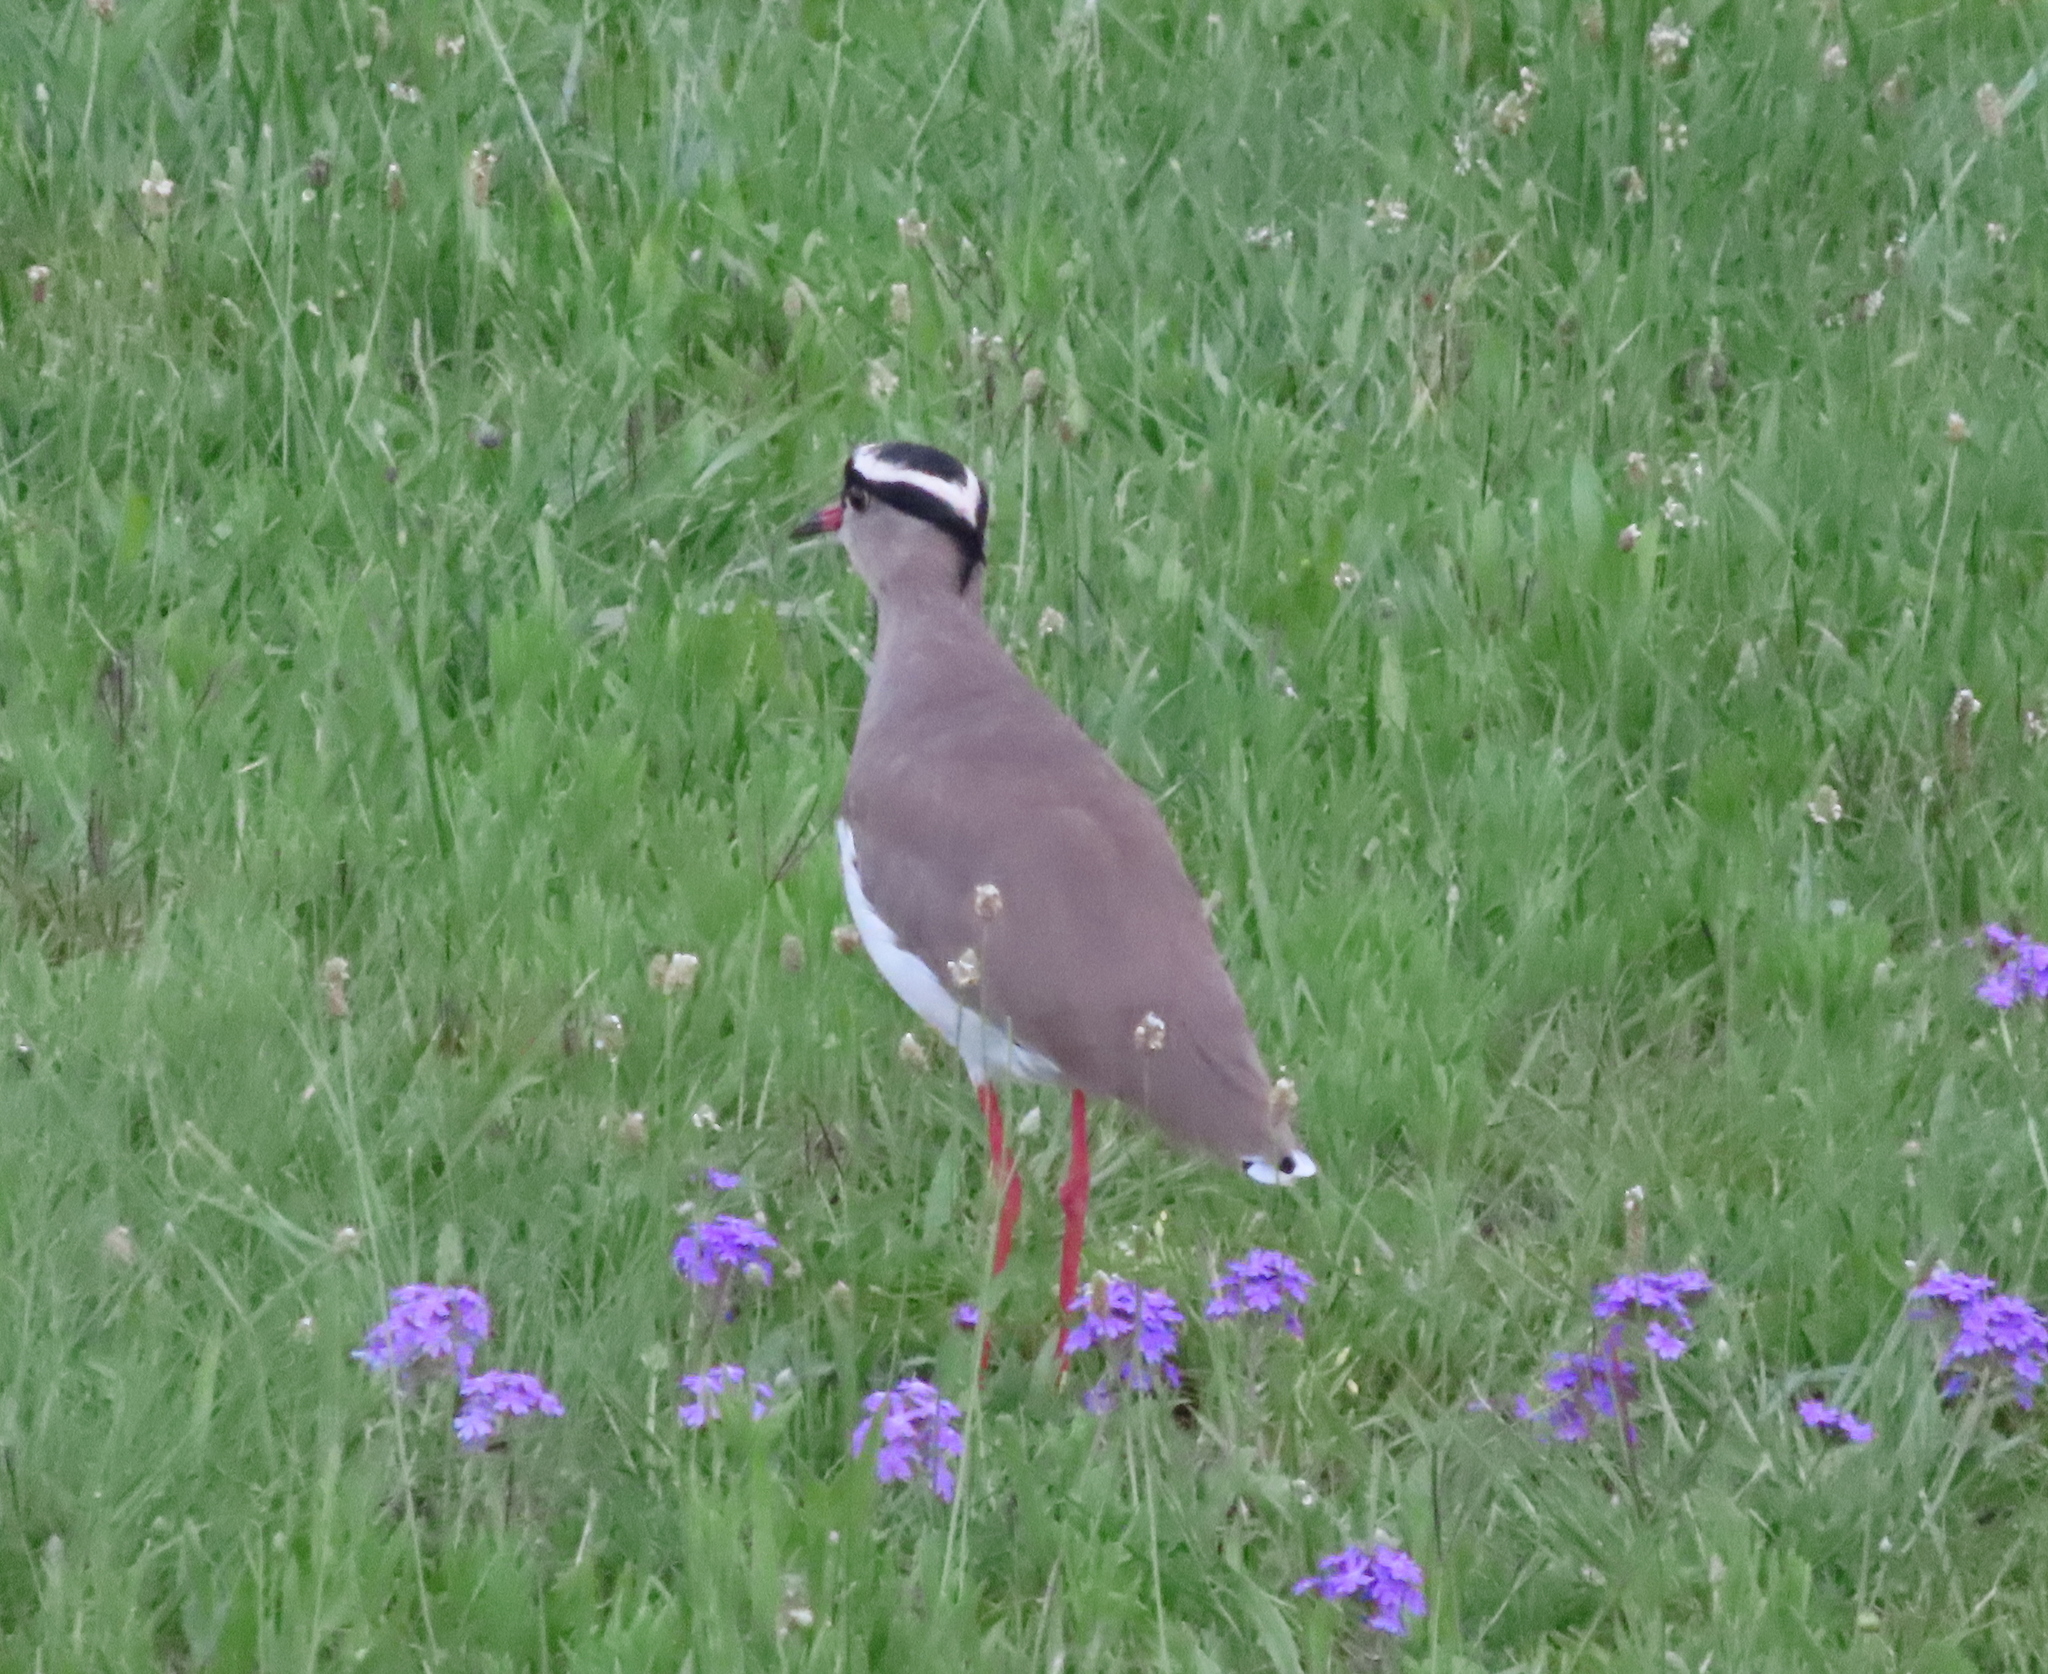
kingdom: Animalia
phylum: Chordata
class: Aves
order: Charadriiformes
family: Charadriidae
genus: Vanellus
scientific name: Vanellus coronatus
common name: Crowned lapwing
